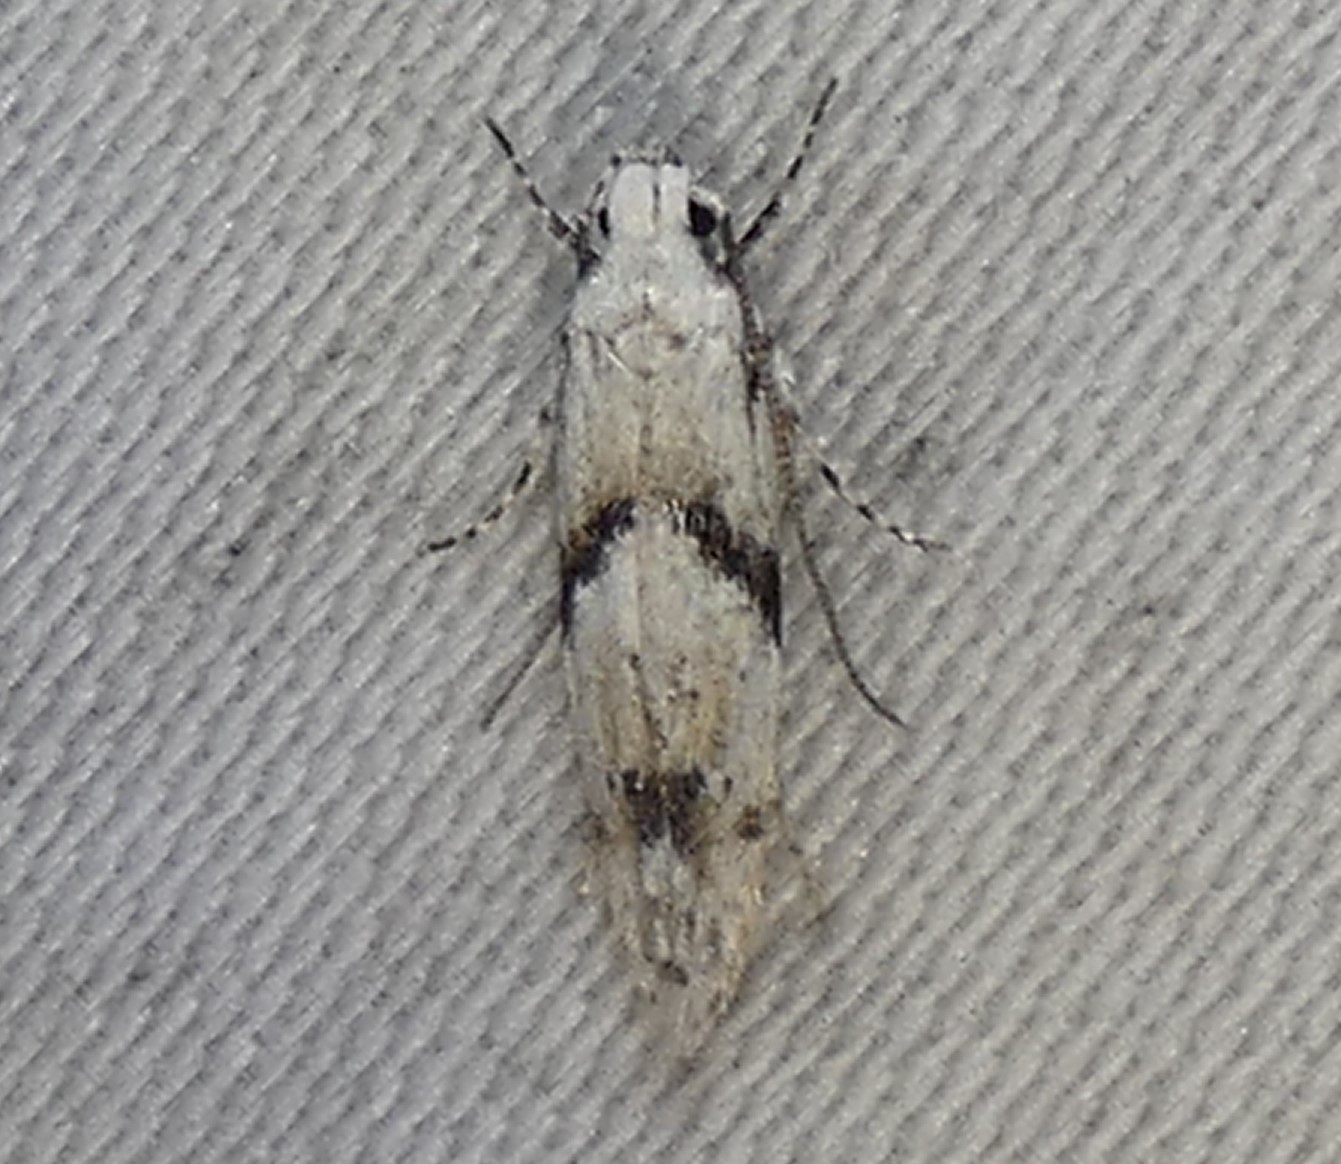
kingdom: Animalia
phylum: Arthropoda
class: Insecta
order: Lepidoptera
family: Gelechiidae
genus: Arogalea
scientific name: Arogalea cristifasciella
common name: White stripe-backed moth
